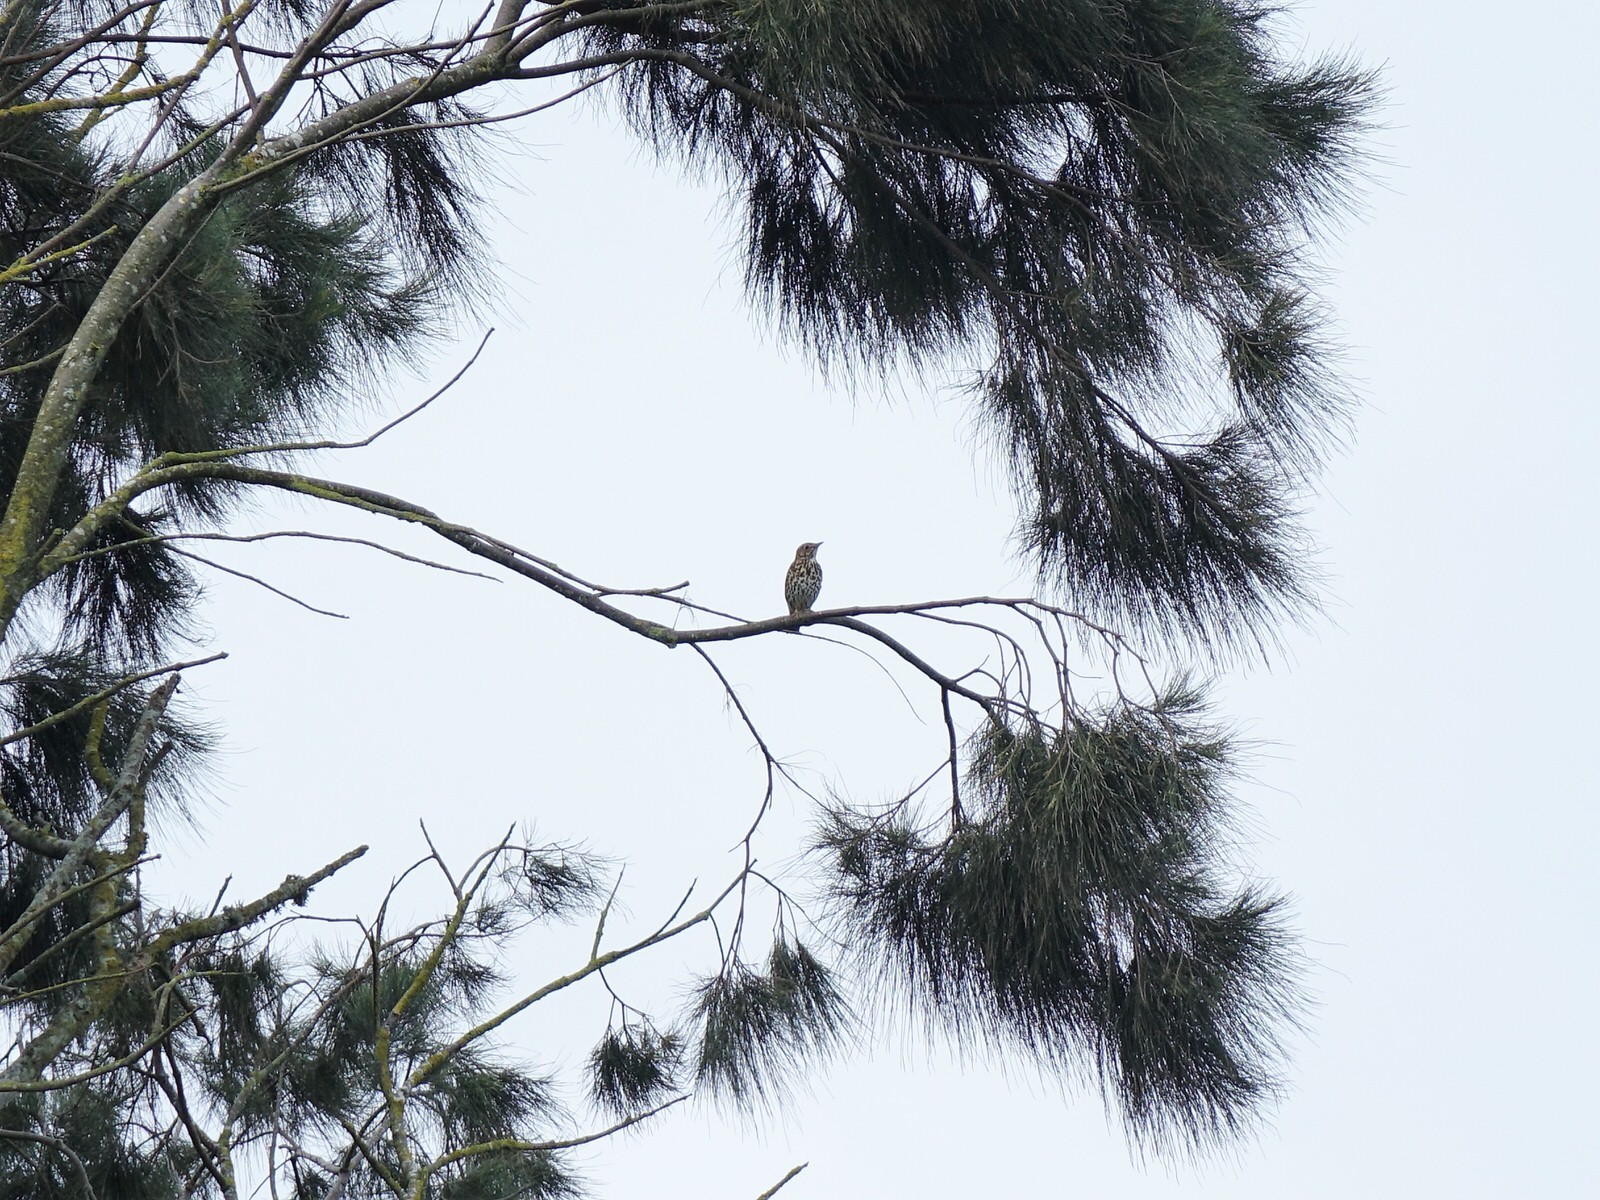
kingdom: Animalia
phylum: Chordata
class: Aves
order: Passeriformes
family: Turdidae
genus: Turdus
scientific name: Turdus philomelos
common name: Song thrush
